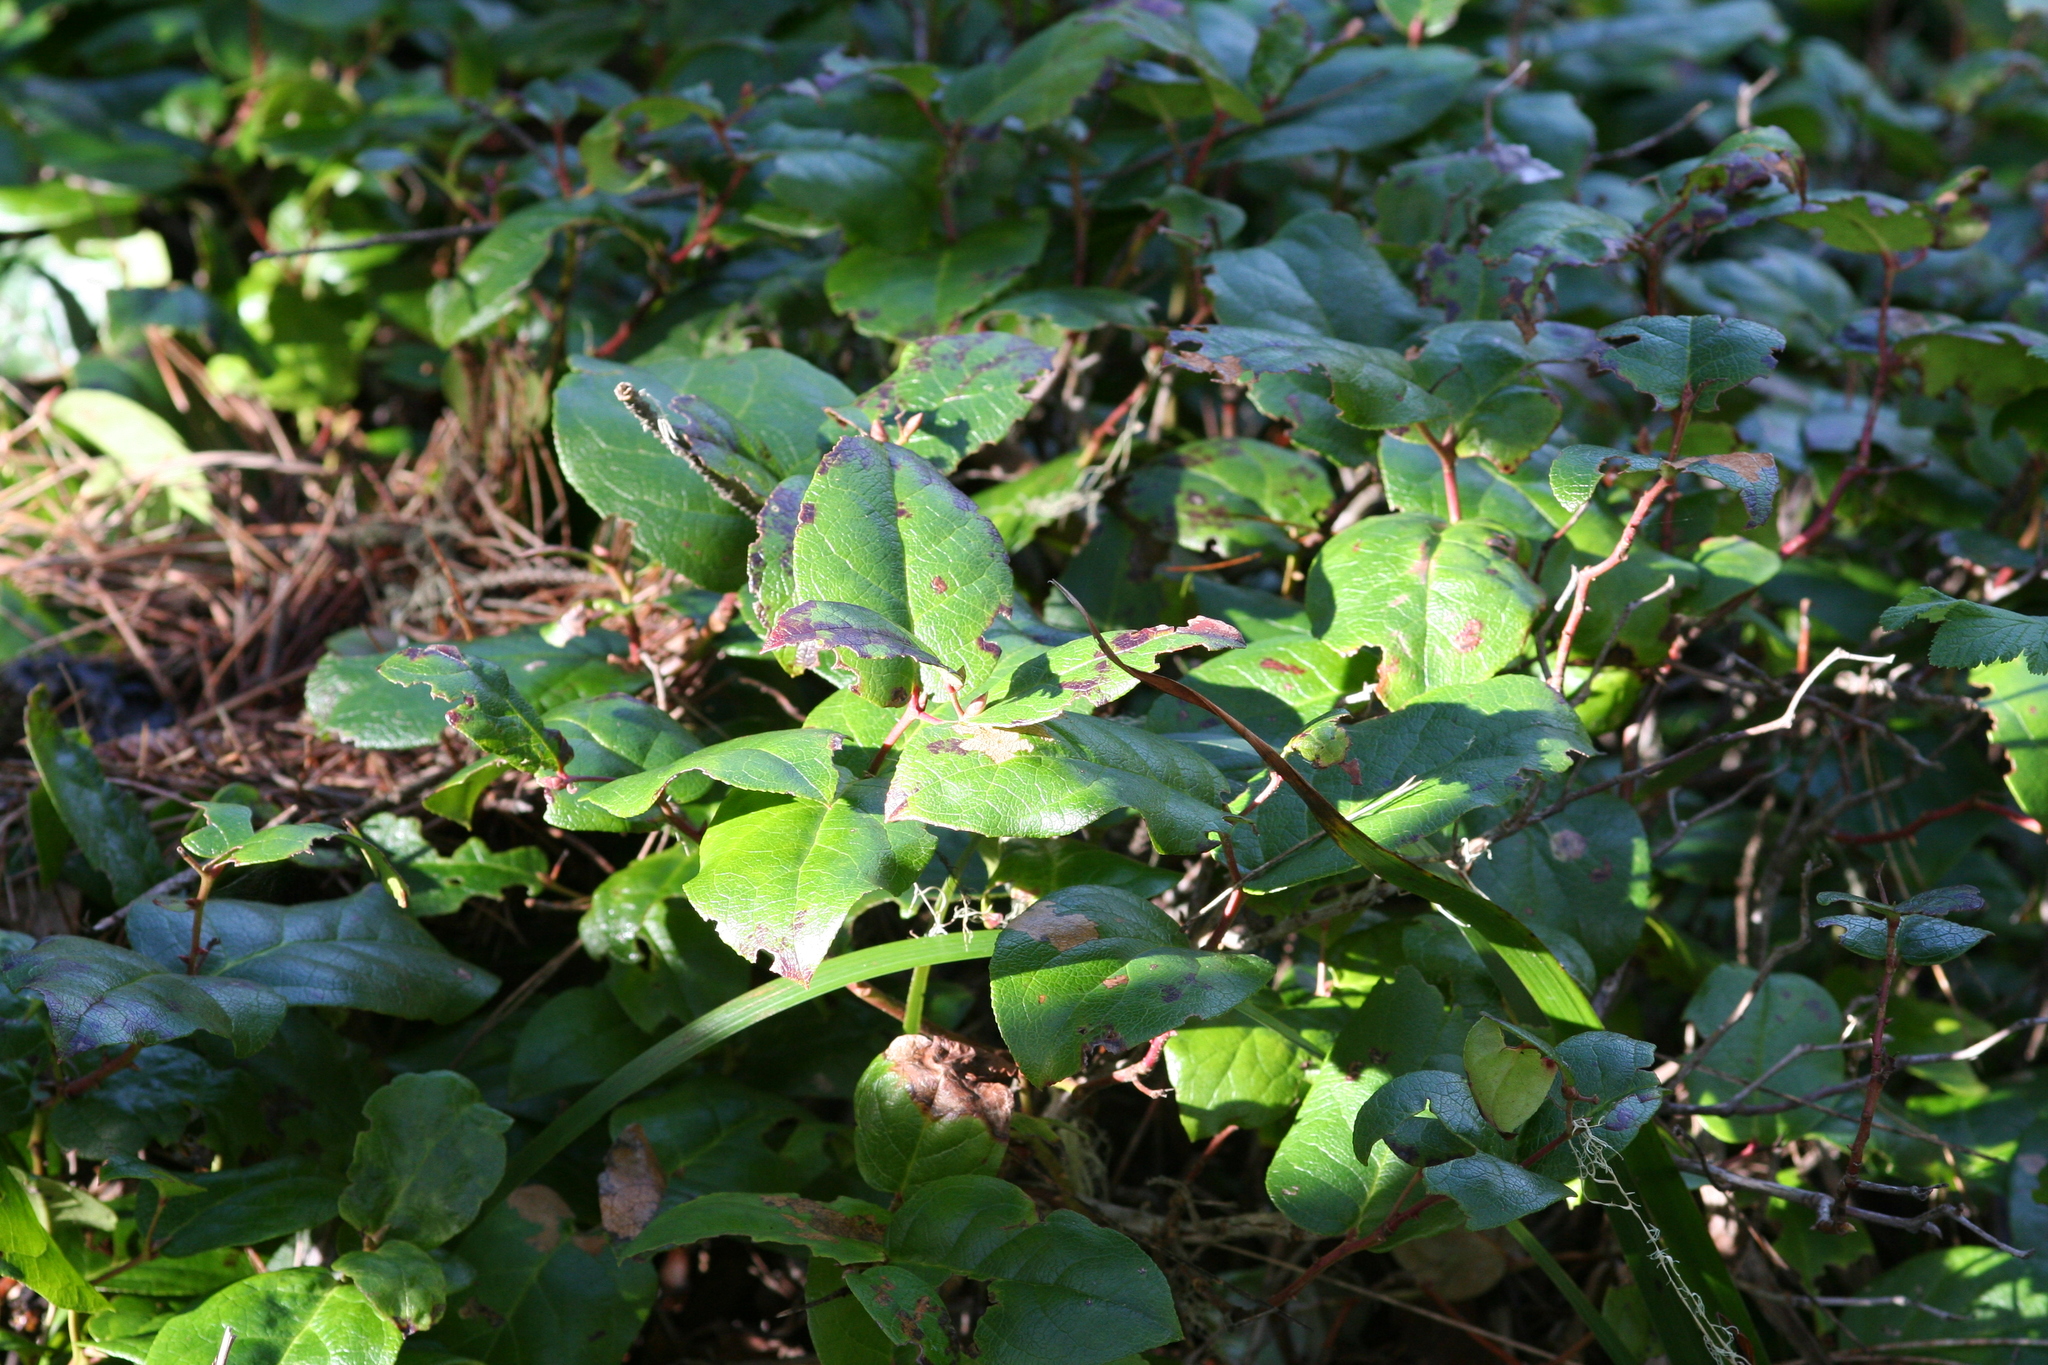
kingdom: Plantae
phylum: Tracheophyta
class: Magnoliopsida
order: Ericales
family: Ericaceae
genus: Gaultheria
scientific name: Gaultheria shallon
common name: Shallon
